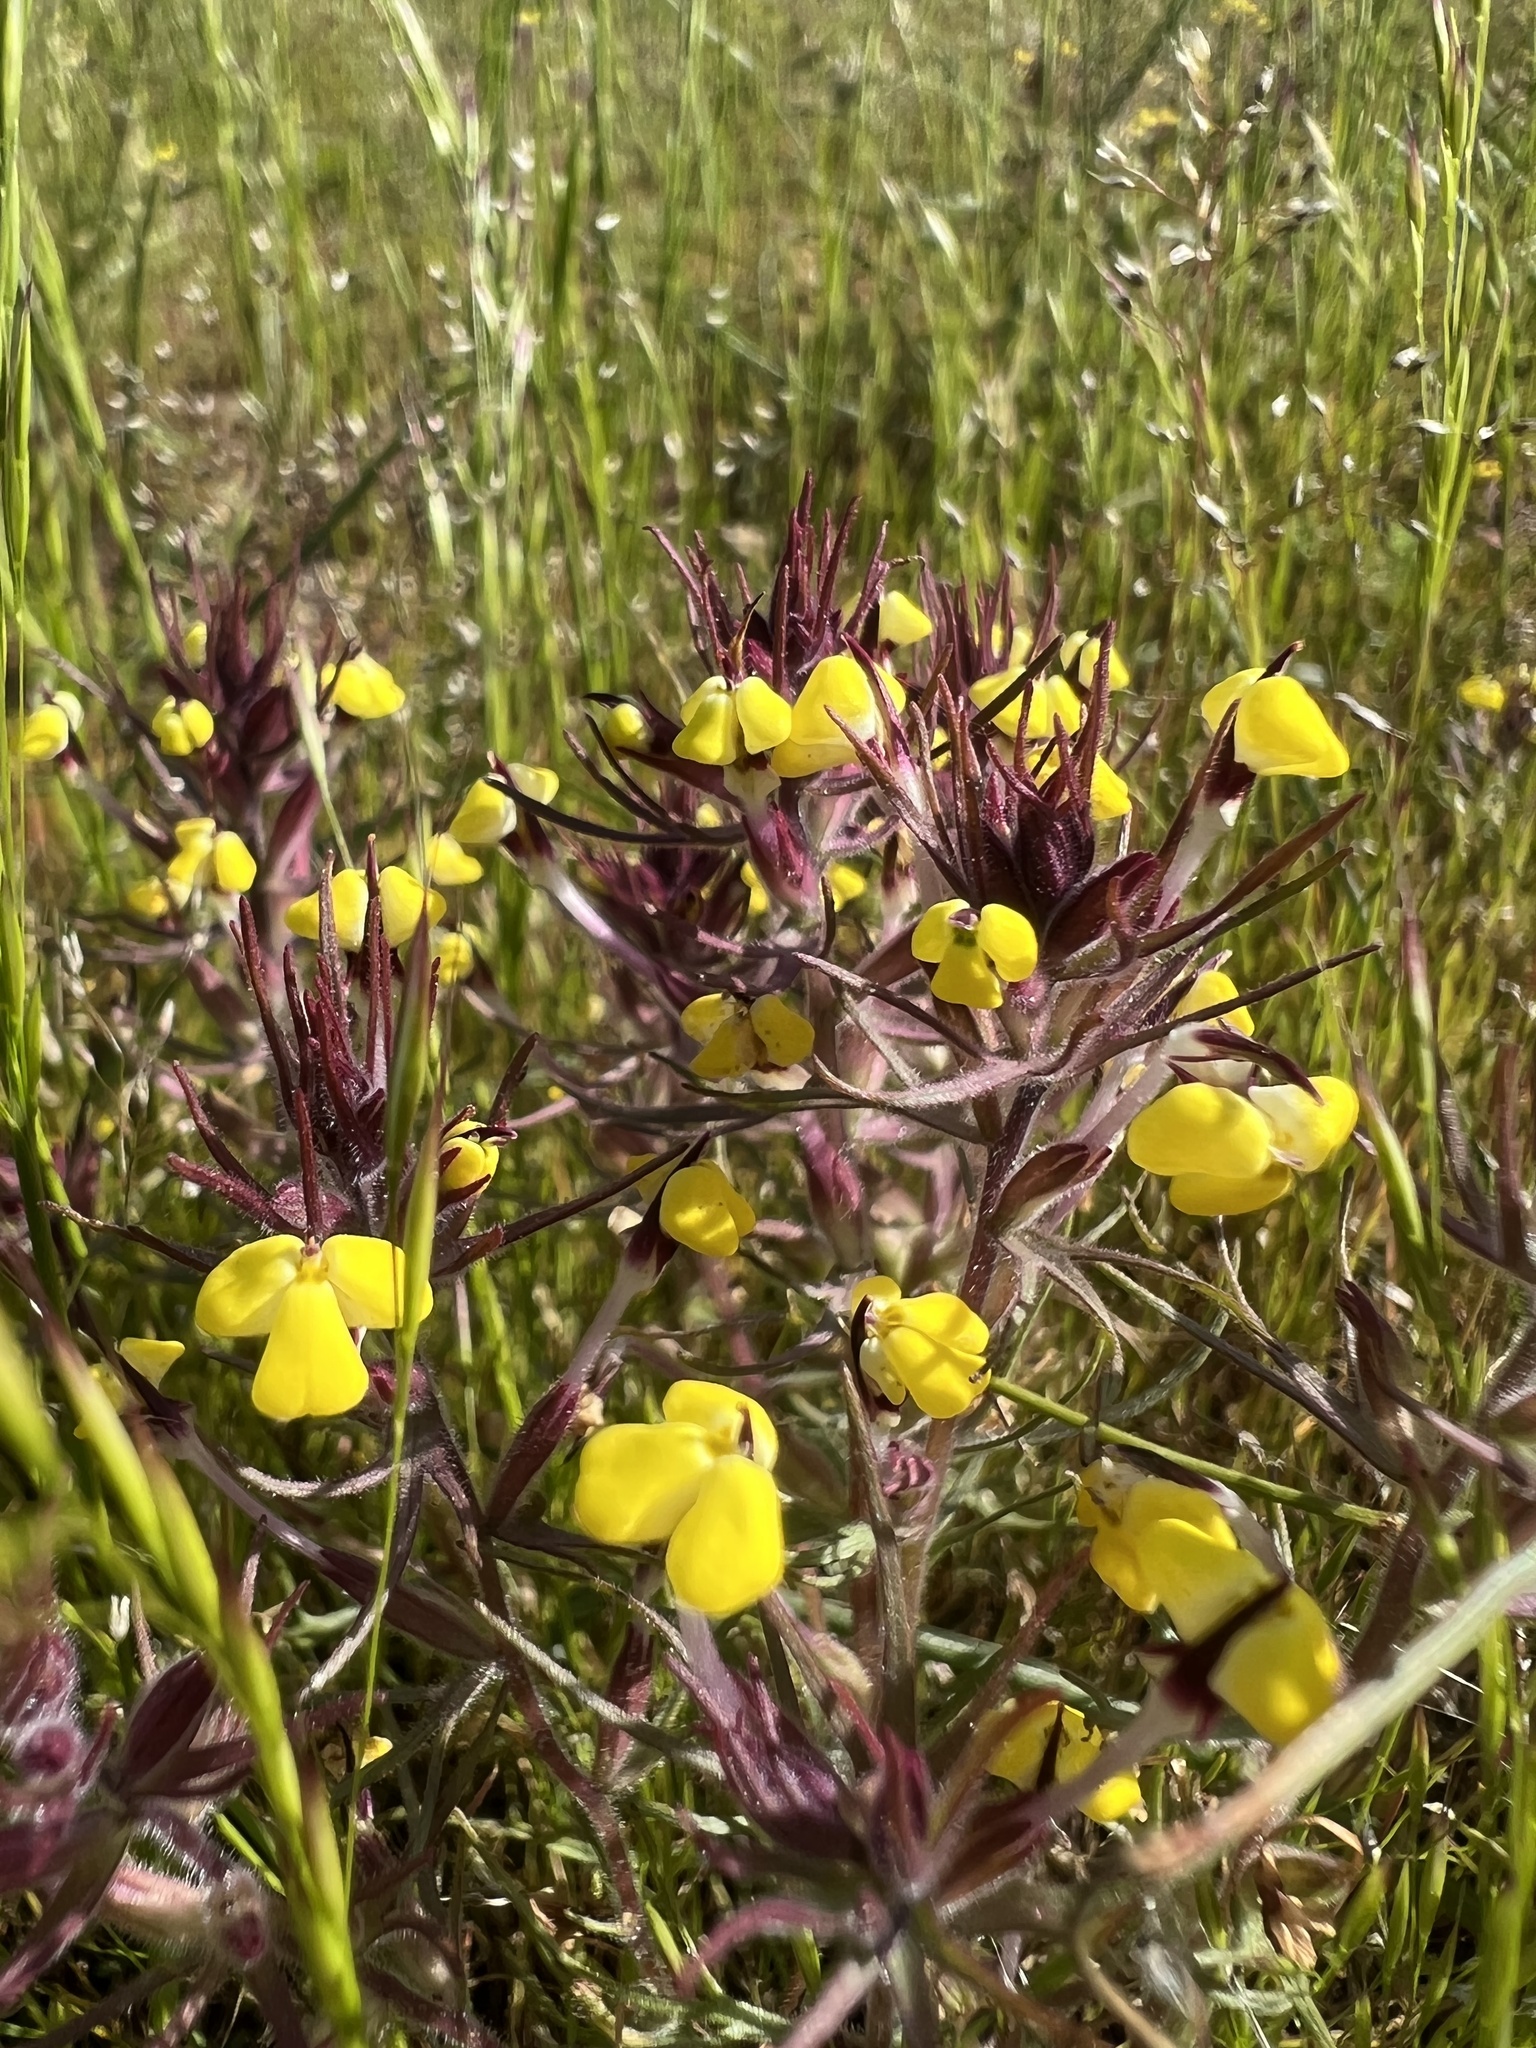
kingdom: Plantae
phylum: Tracheophyta
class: Magnoliopsida
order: Lamiales
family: Orobanchaceae
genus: Triphysaria
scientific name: Triphysaria eriantha
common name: Johnny-tuck
